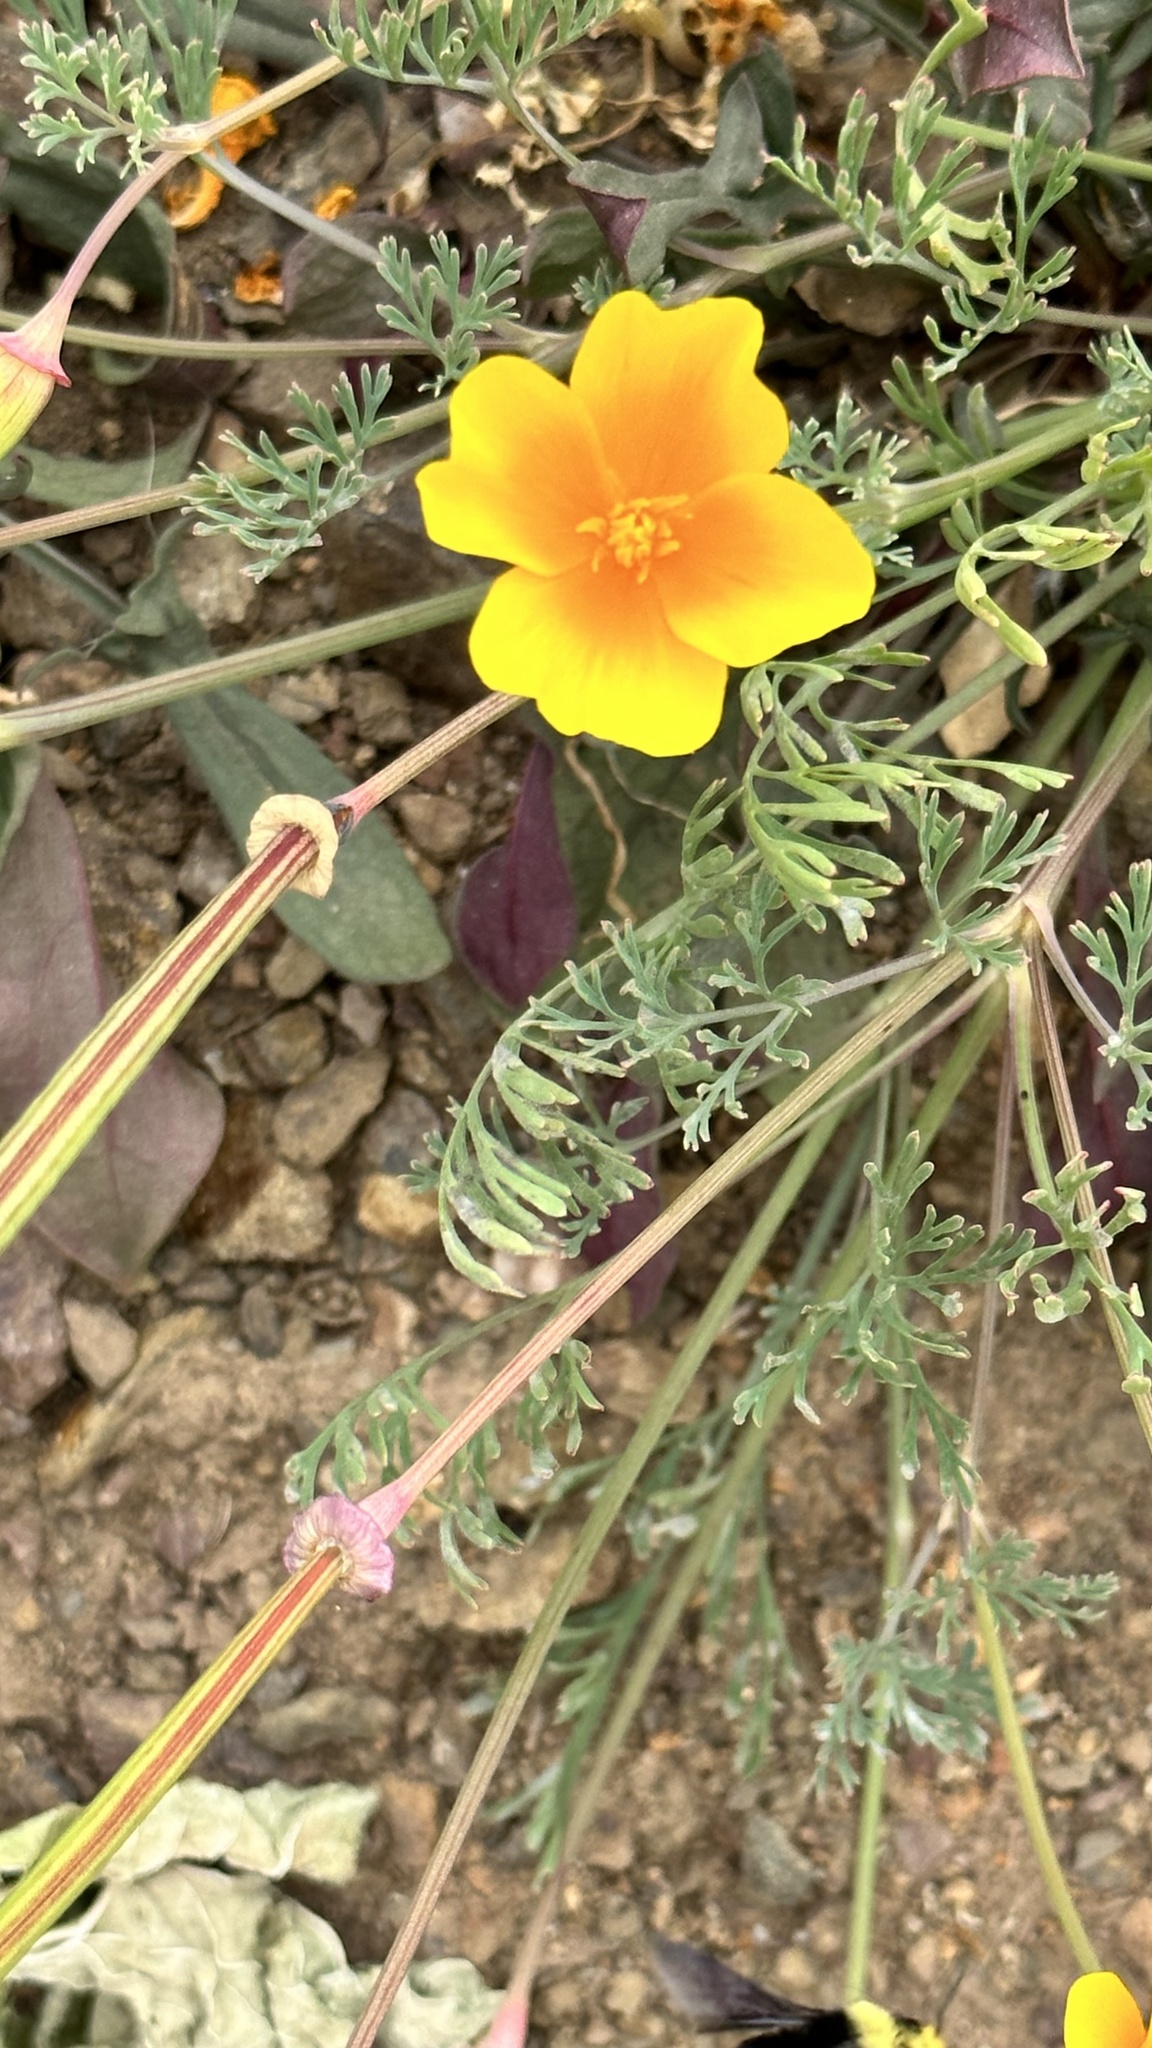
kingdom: Plantae
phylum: Tracheophyta
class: Magnoliopsida
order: Ranunculales
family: Papaveraceae
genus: Eschscholzia
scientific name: Eschscholzia californica
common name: California poppy
